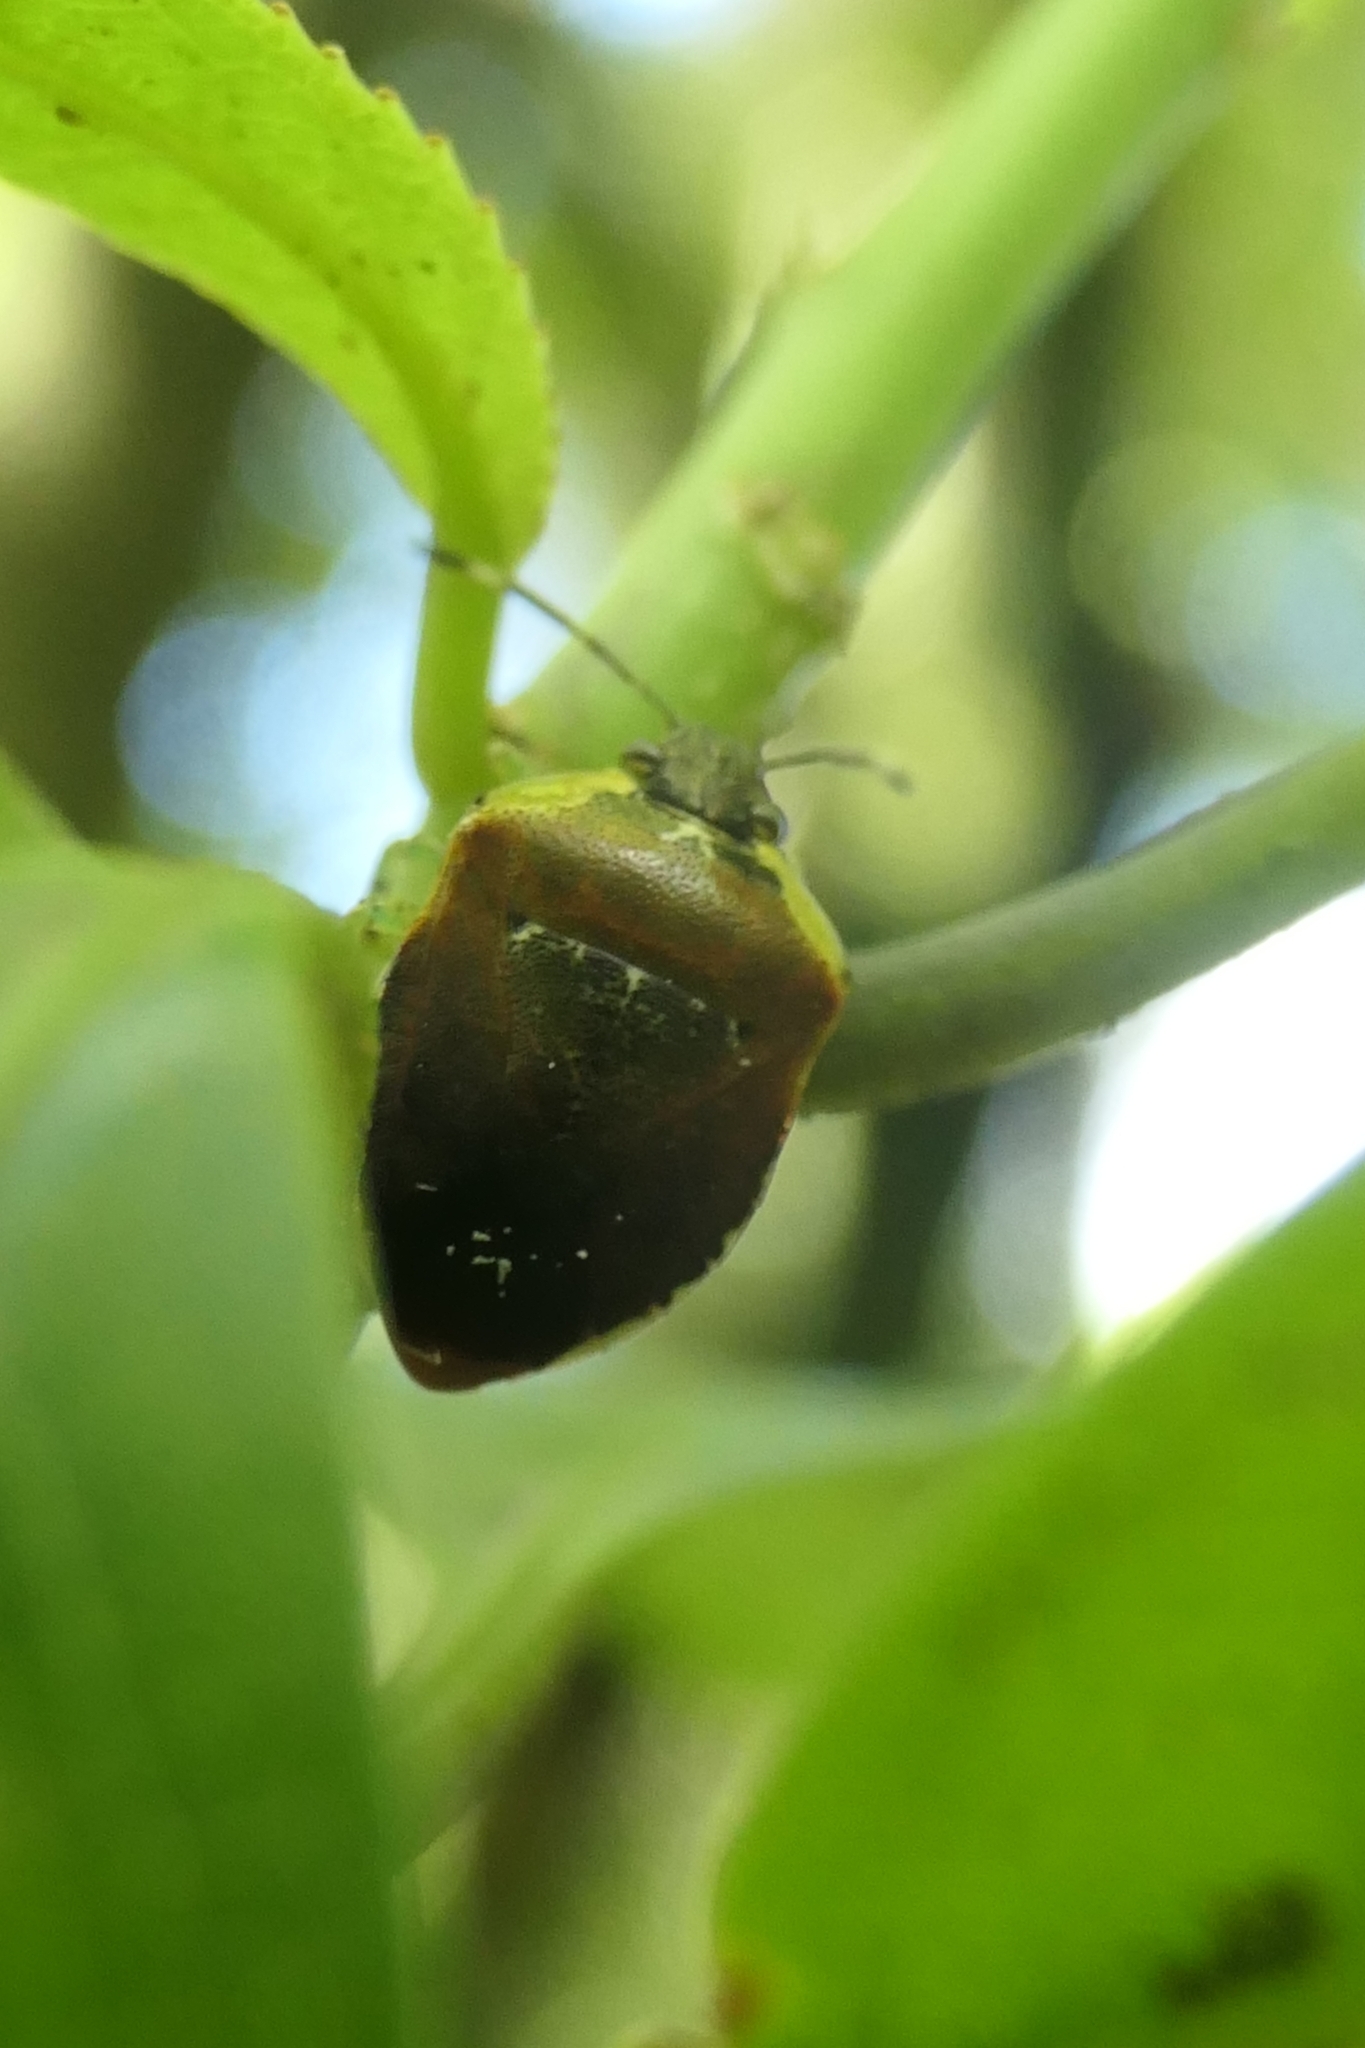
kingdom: Animalia
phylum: Arthropoda
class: Insecta
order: Hemiptera
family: Pentatomidae
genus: Monteithiella
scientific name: Monteithiella
